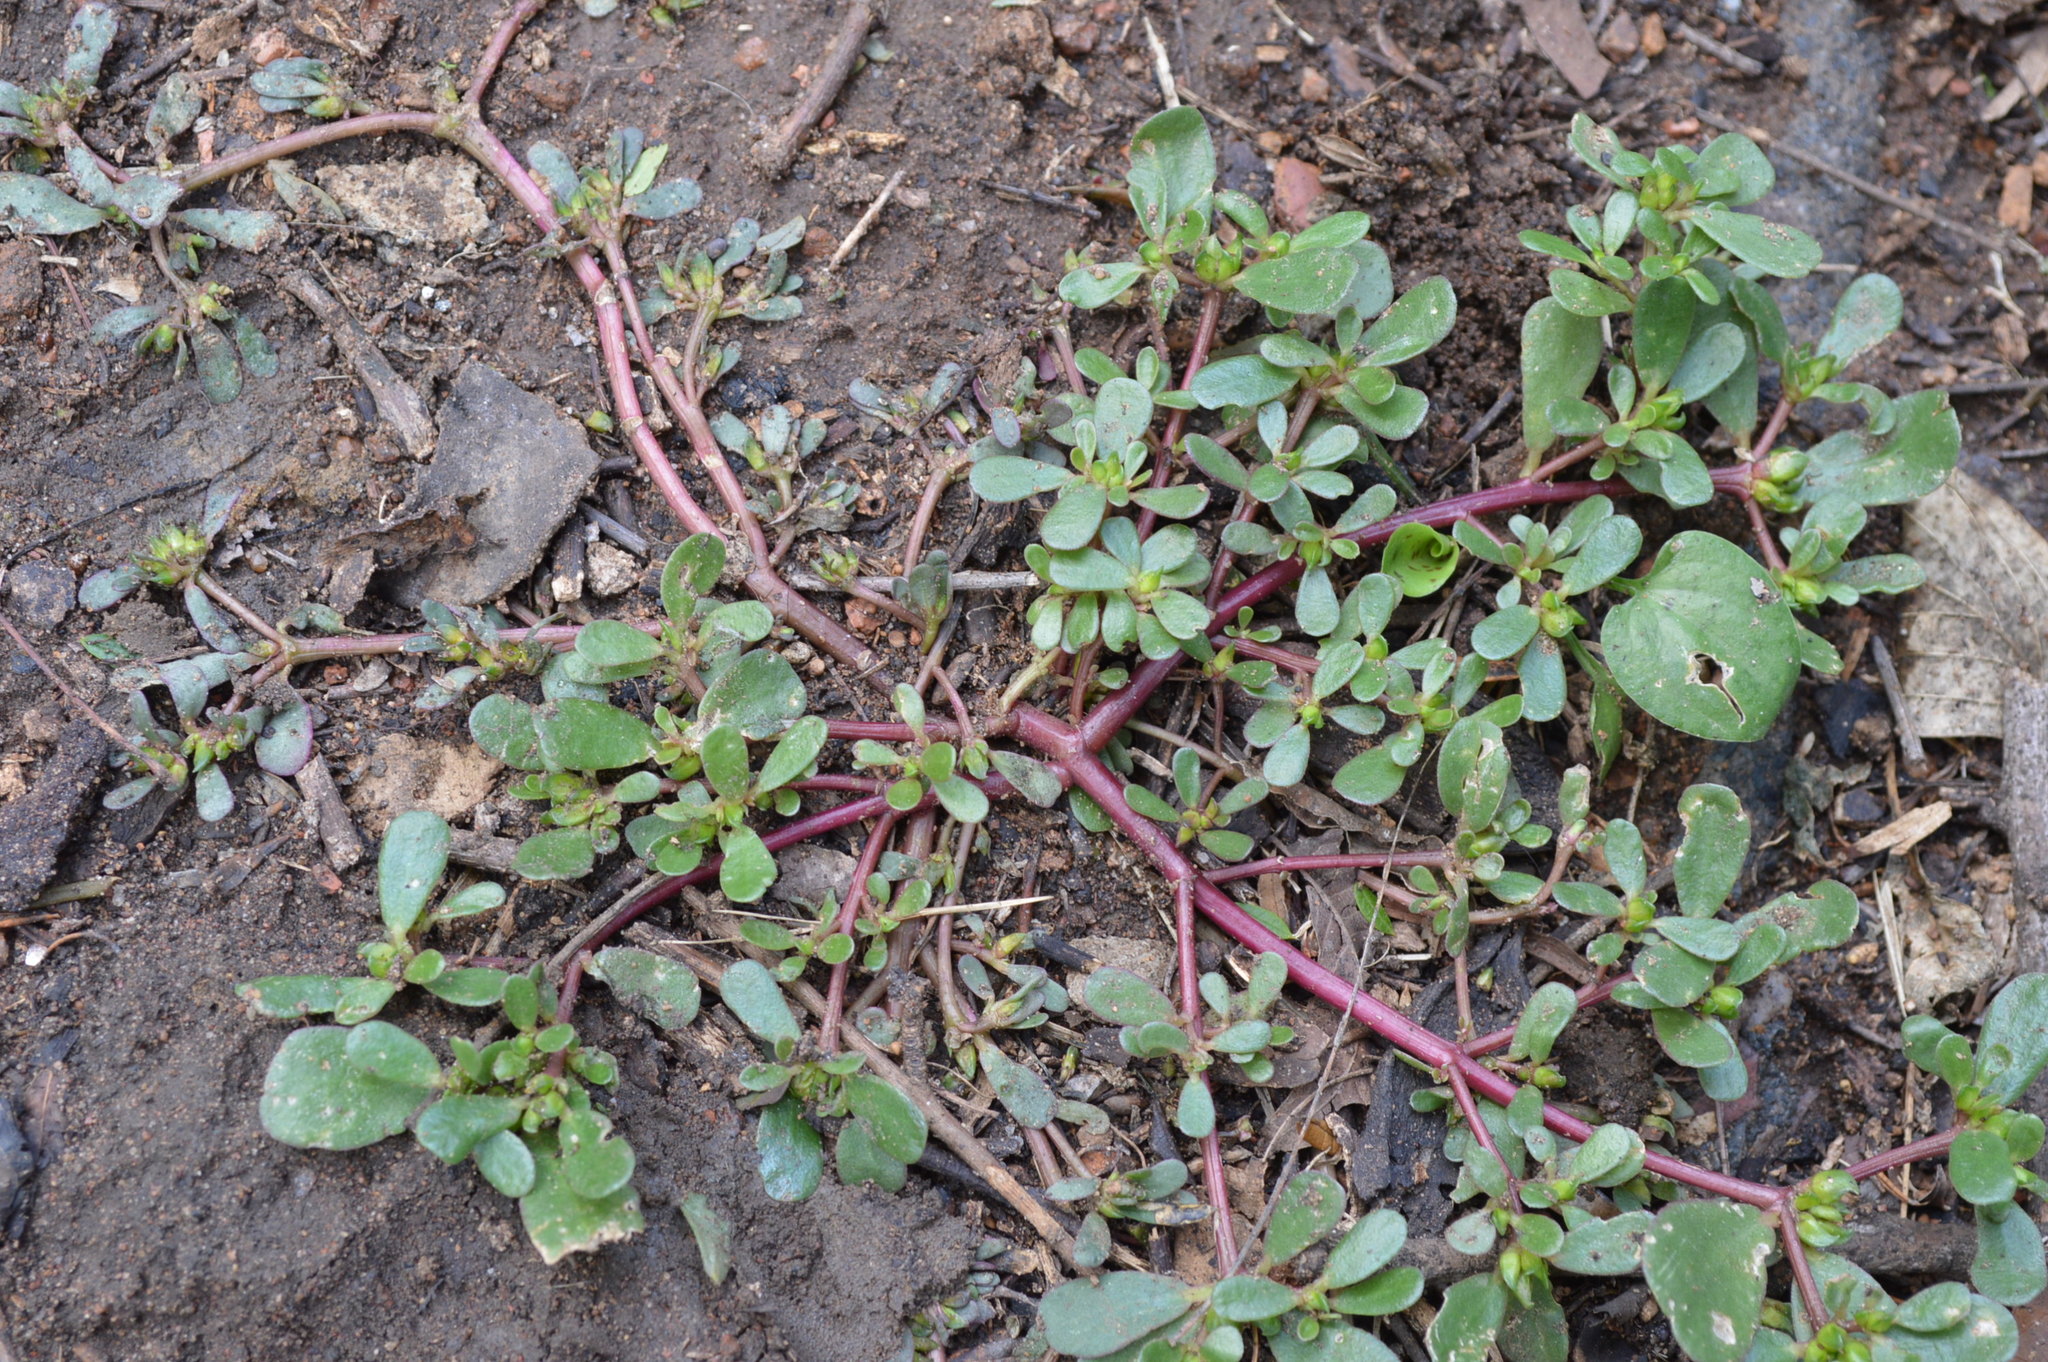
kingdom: Plantae
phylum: Tracheophyta
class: Magnoliopsida
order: Caryophyllales
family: Portulacaceae
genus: Portulaca
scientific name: Portulaca oleracea
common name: Common purslane
